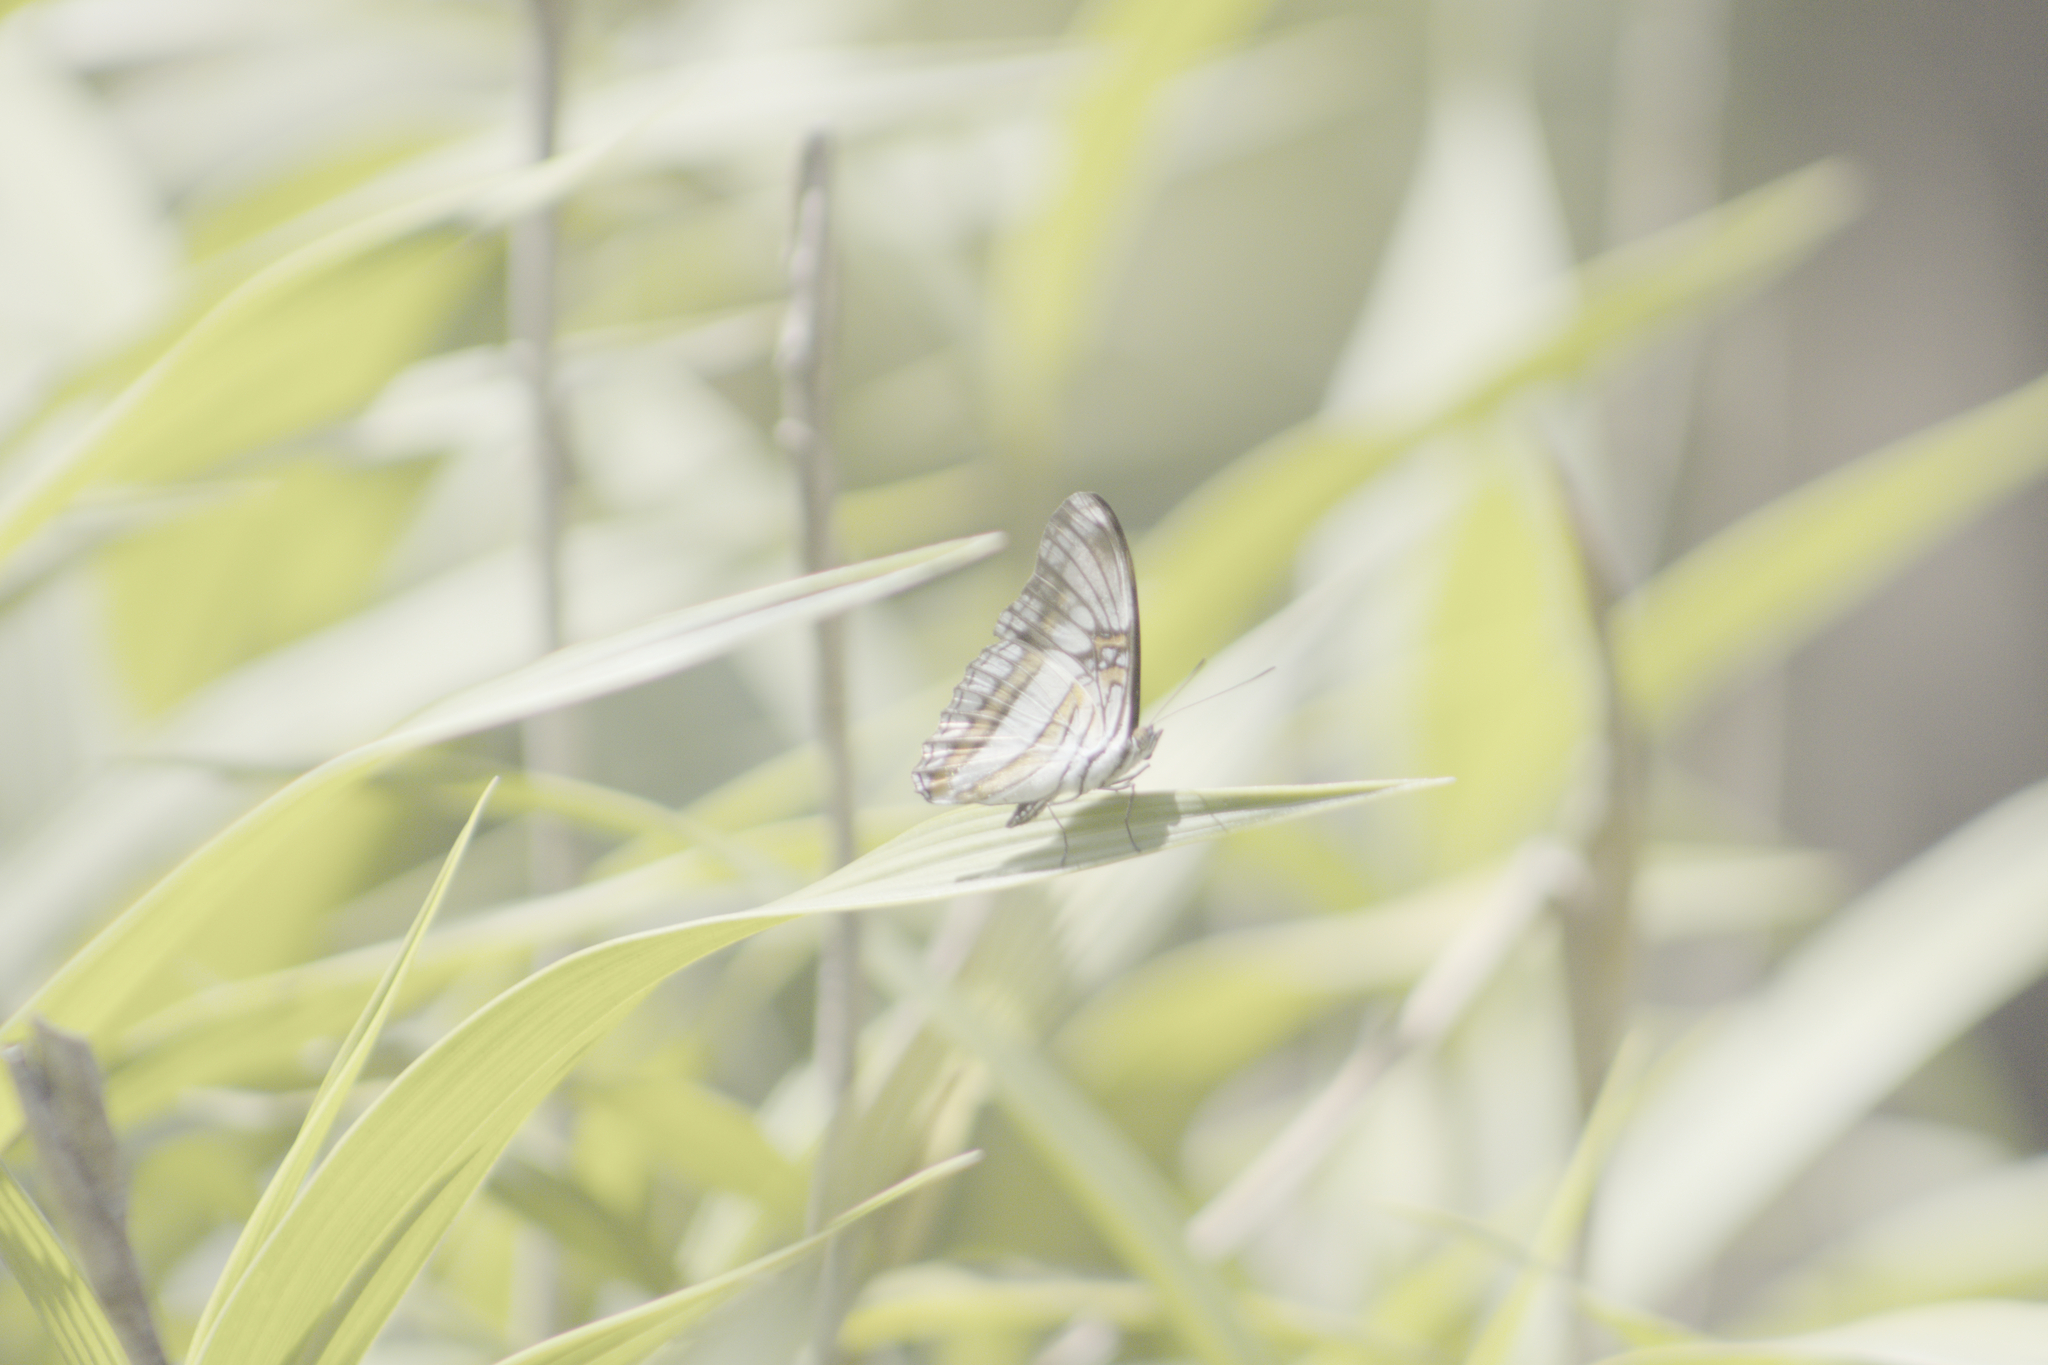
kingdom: Animalia
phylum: Arthropoda
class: Insecta
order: Lepidoptera
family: Nymphalidae
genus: Limenitis
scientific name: Limenitis serpa
